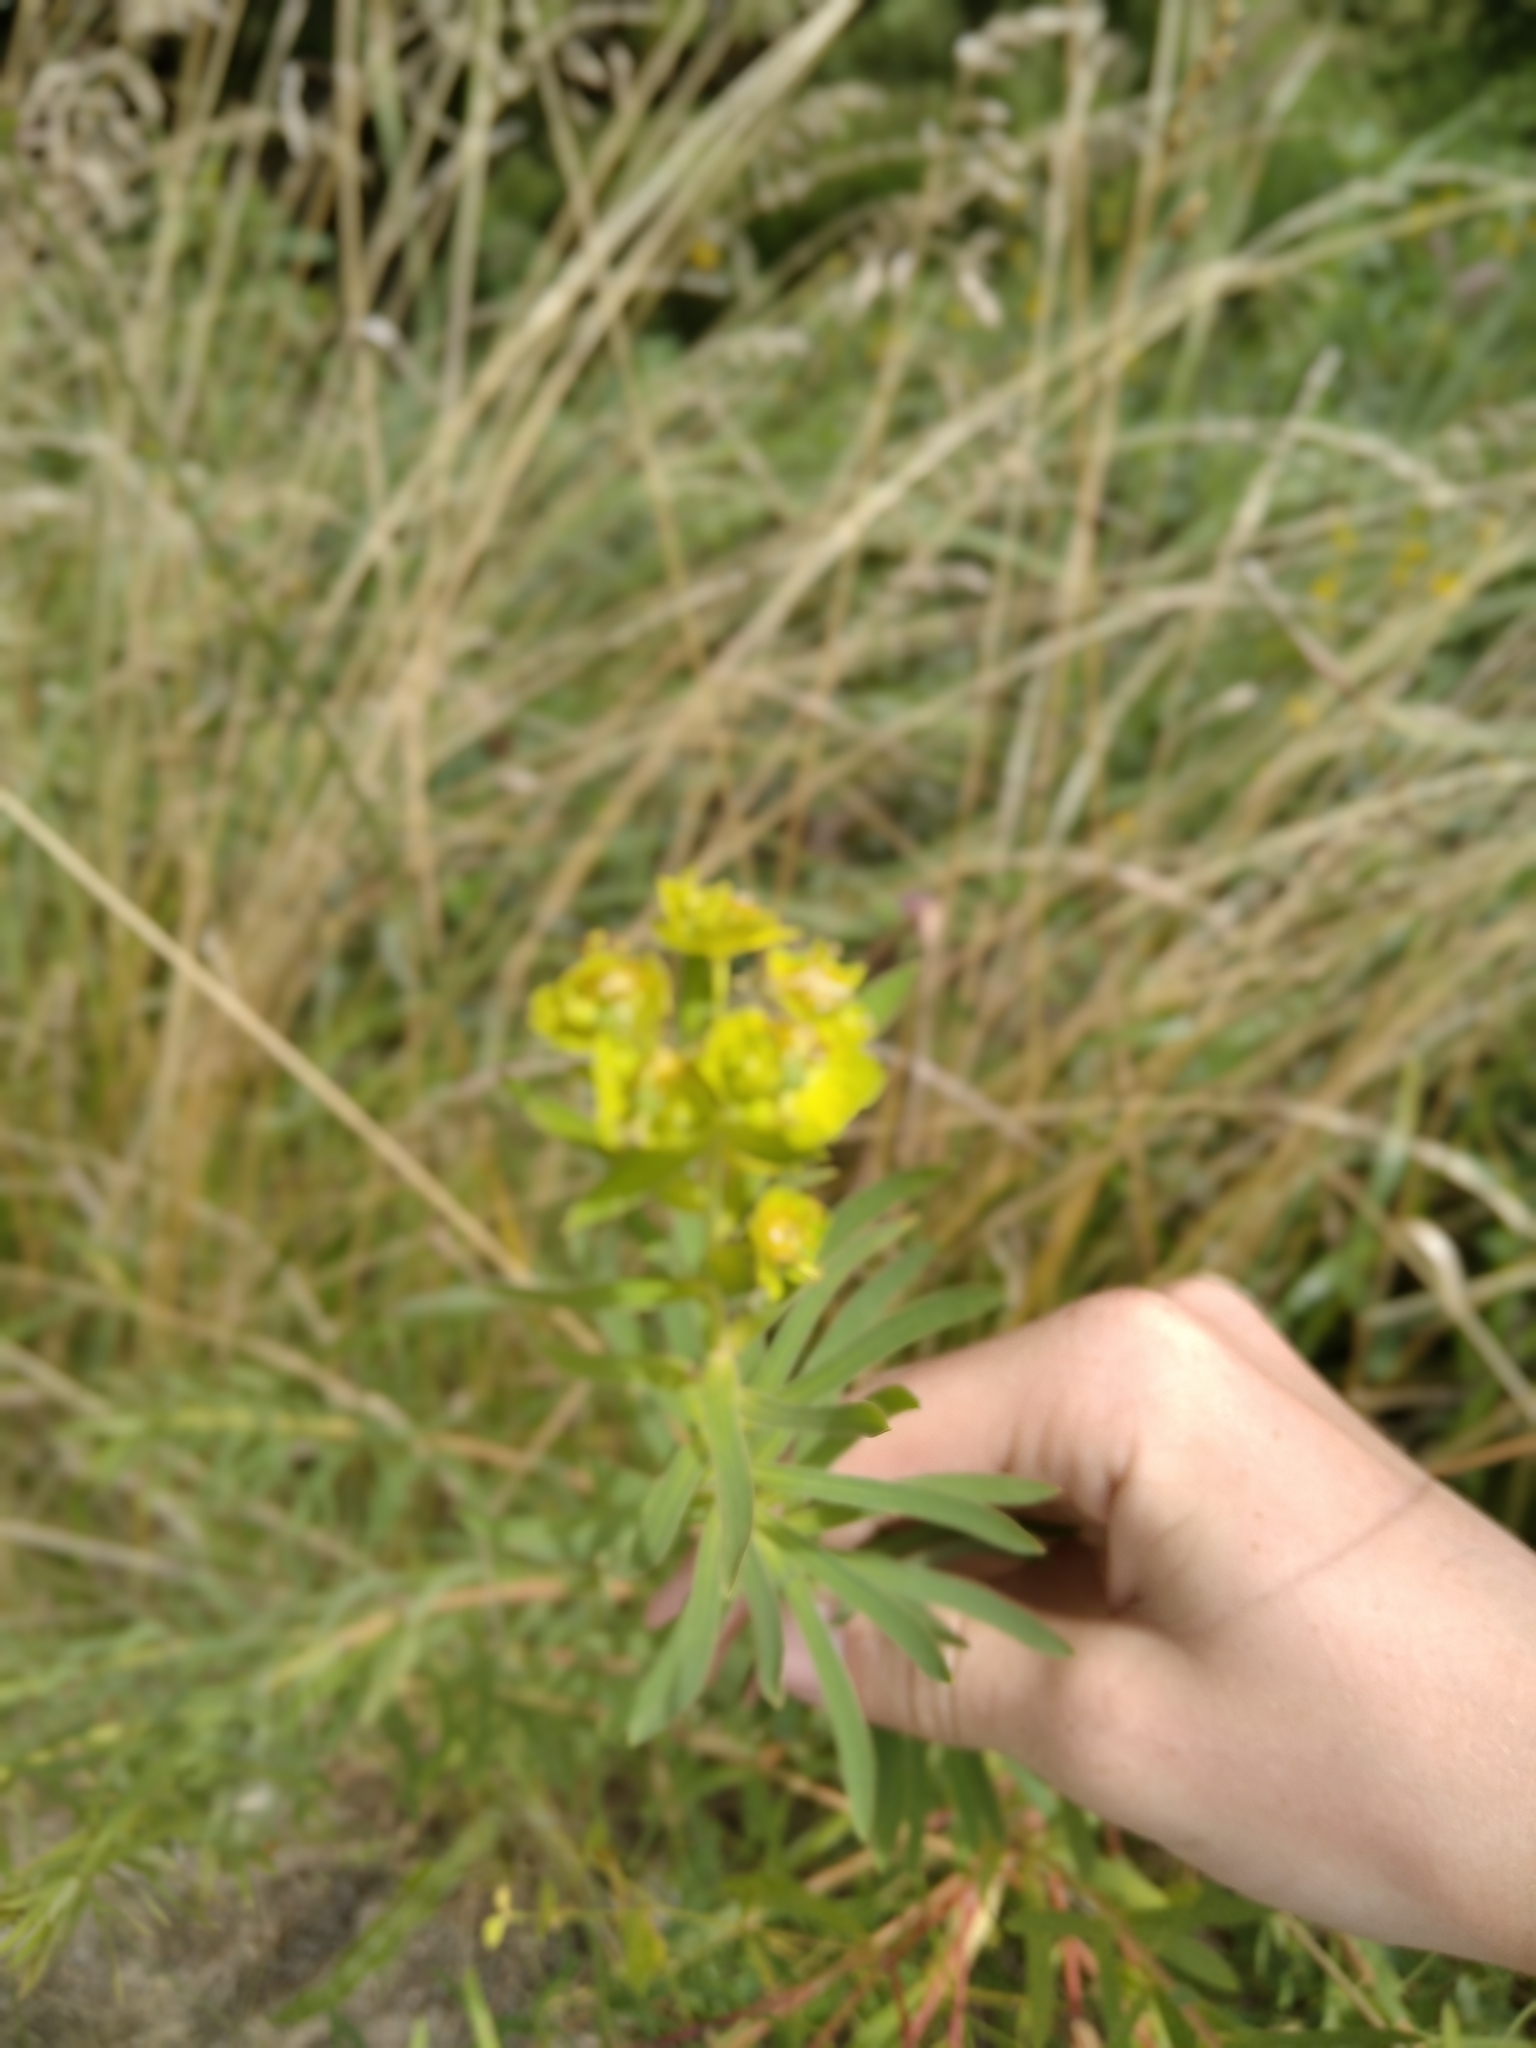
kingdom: Plantae
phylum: Tracheophyta
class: Magnoliopsida
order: Malpighiales
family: Euphorbiaceae
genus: Euphorbia
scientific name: Euphorbia virgata
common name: Leafy spurge
